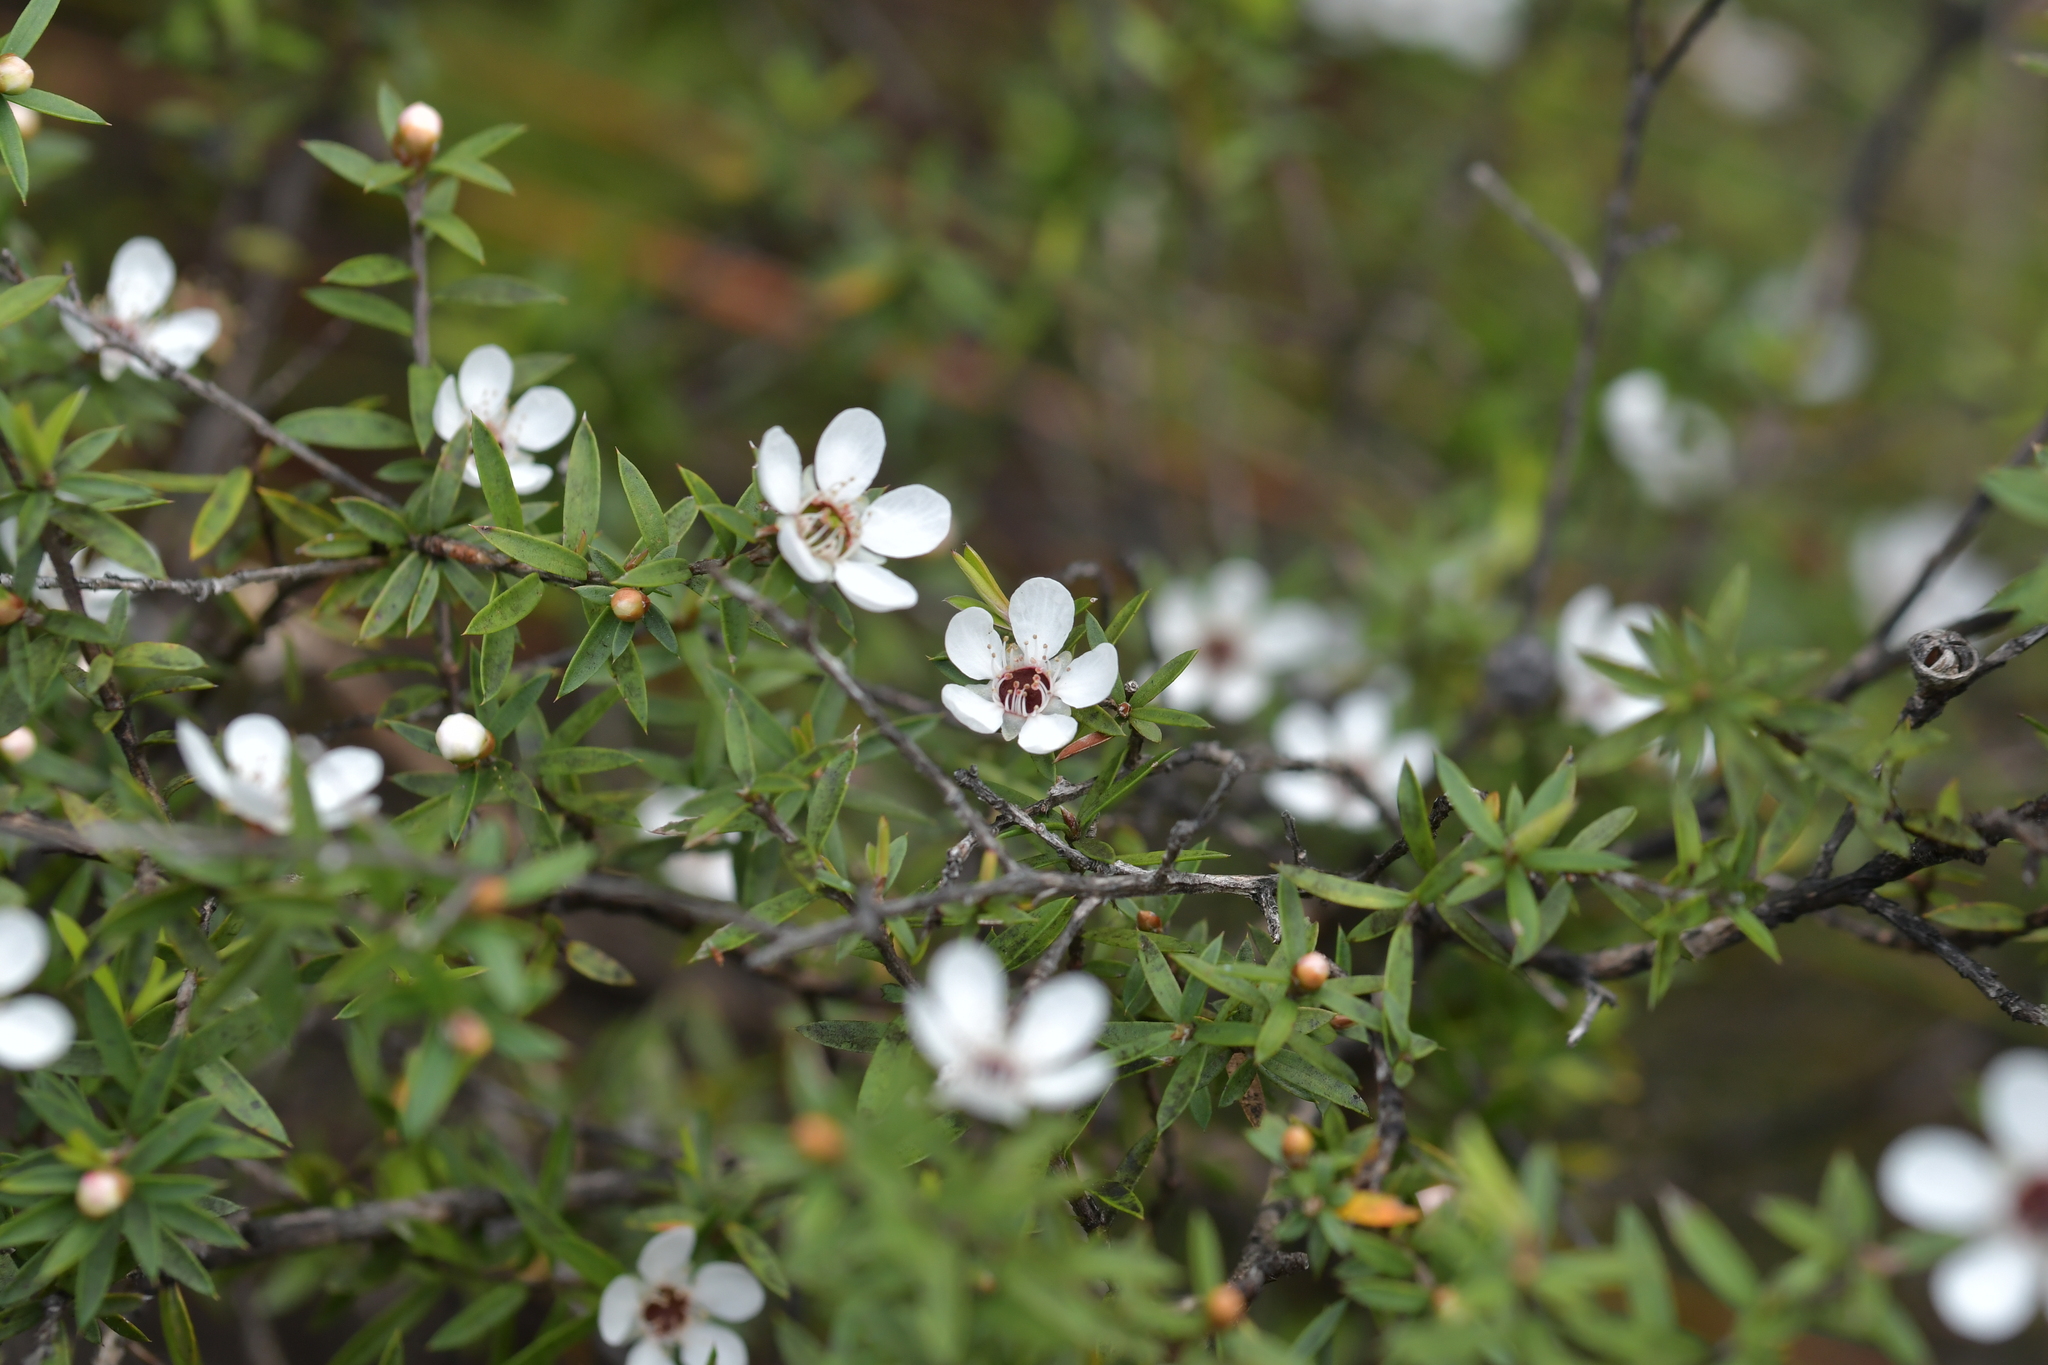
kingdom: Plantae
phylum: Tracheophyta
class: Magnoliopsida
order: Myrtales
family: Myrtaceae
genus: Leptospermum
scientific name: Leptospermum scoparium
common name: Broom tea-tree
